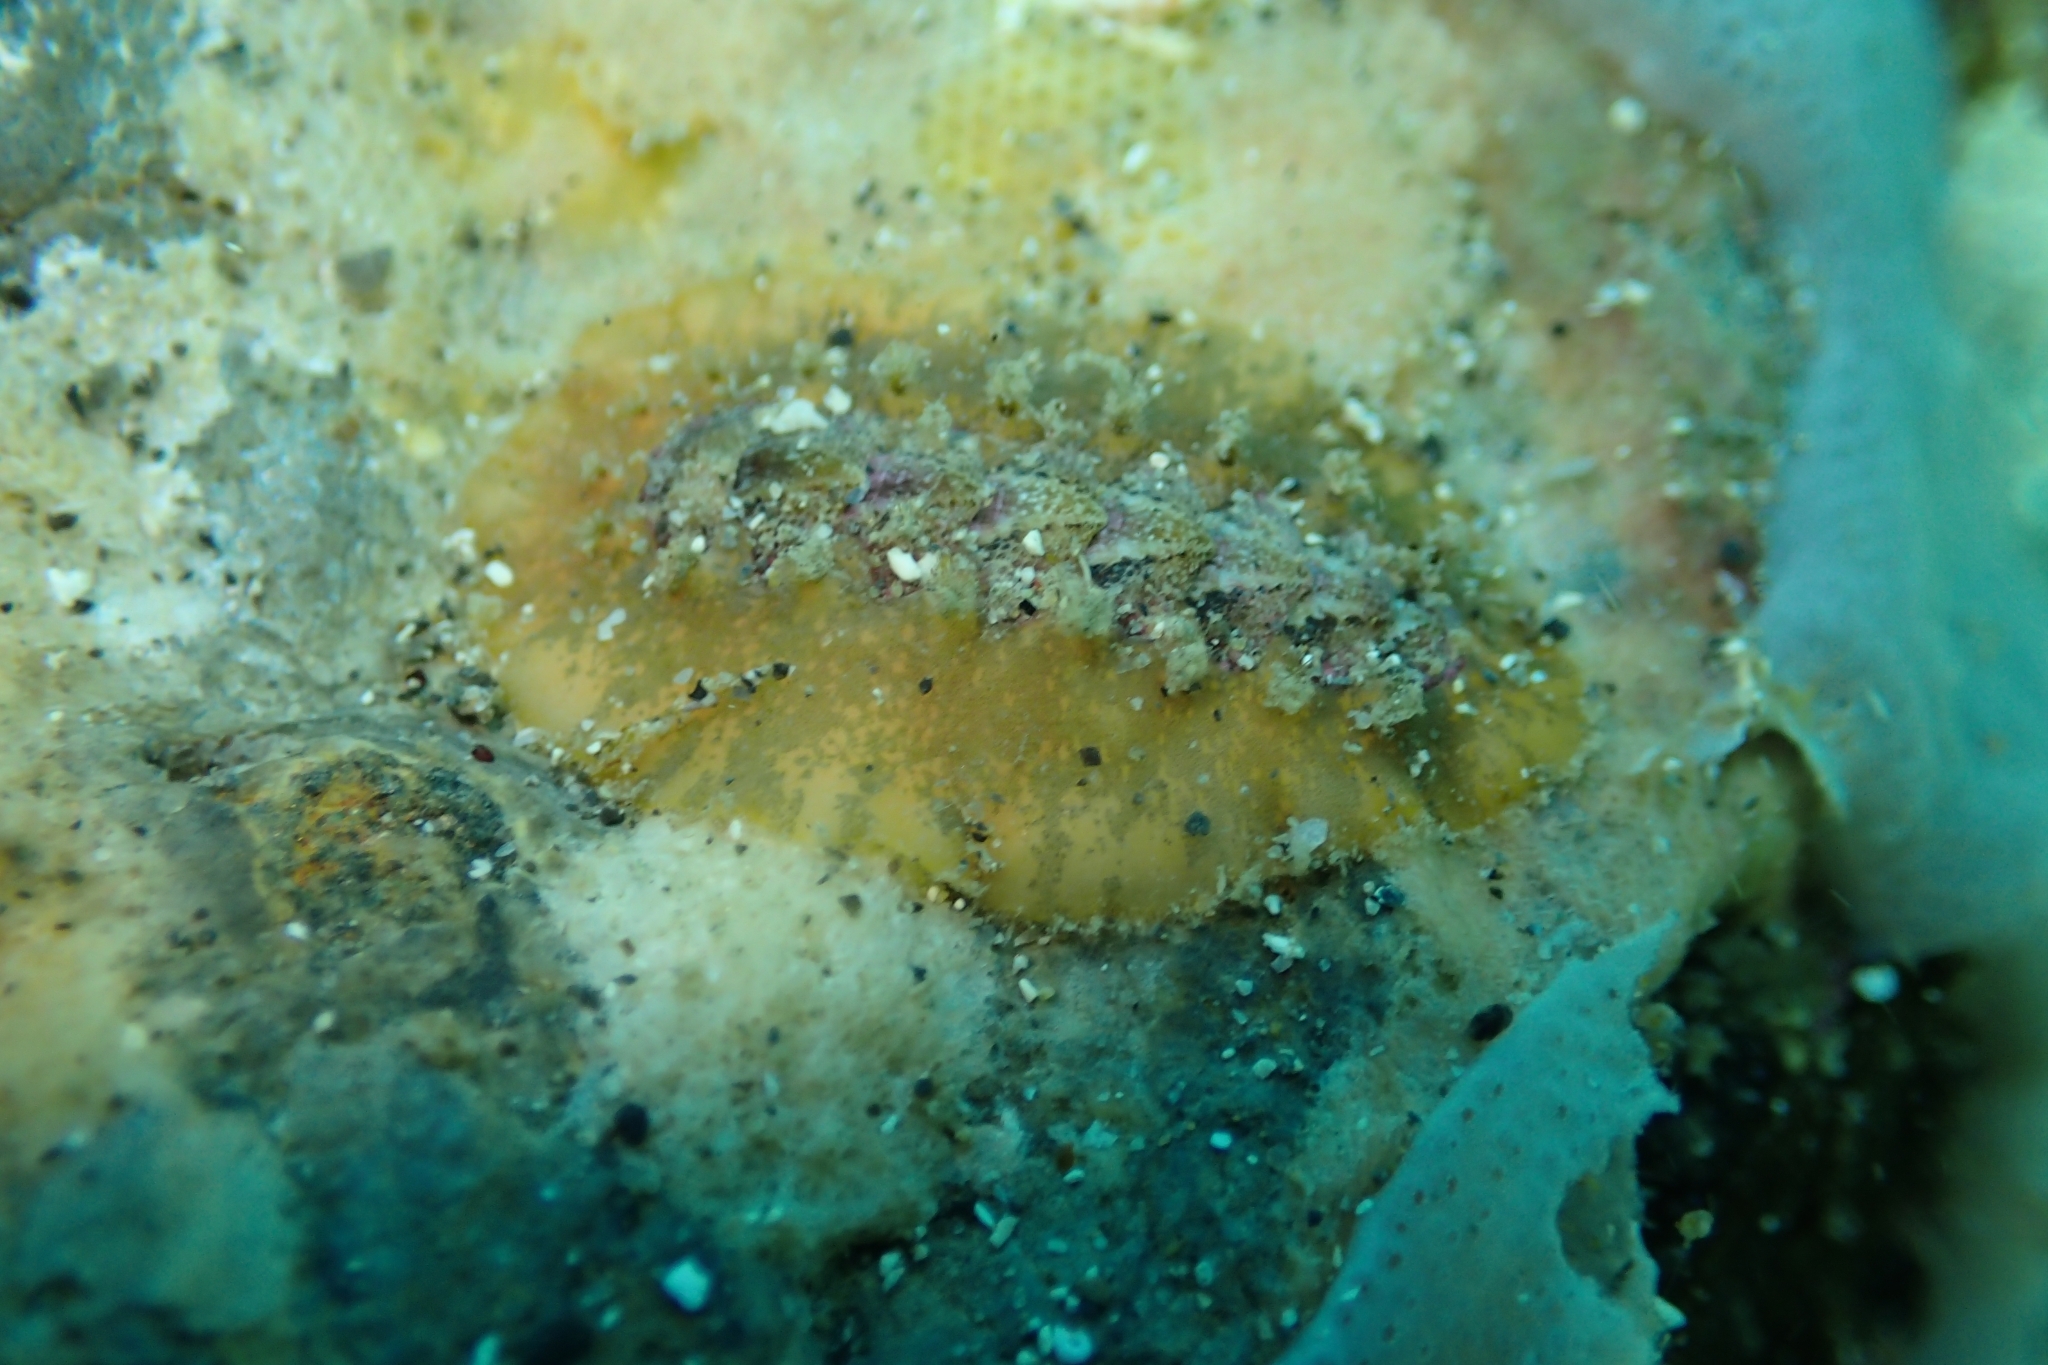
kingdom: Animalia
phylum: Mollusca
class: Polyplacophora
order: Chitonida
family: Acanthochitonidae
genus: Notoplax
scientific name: Notoplax violacea
